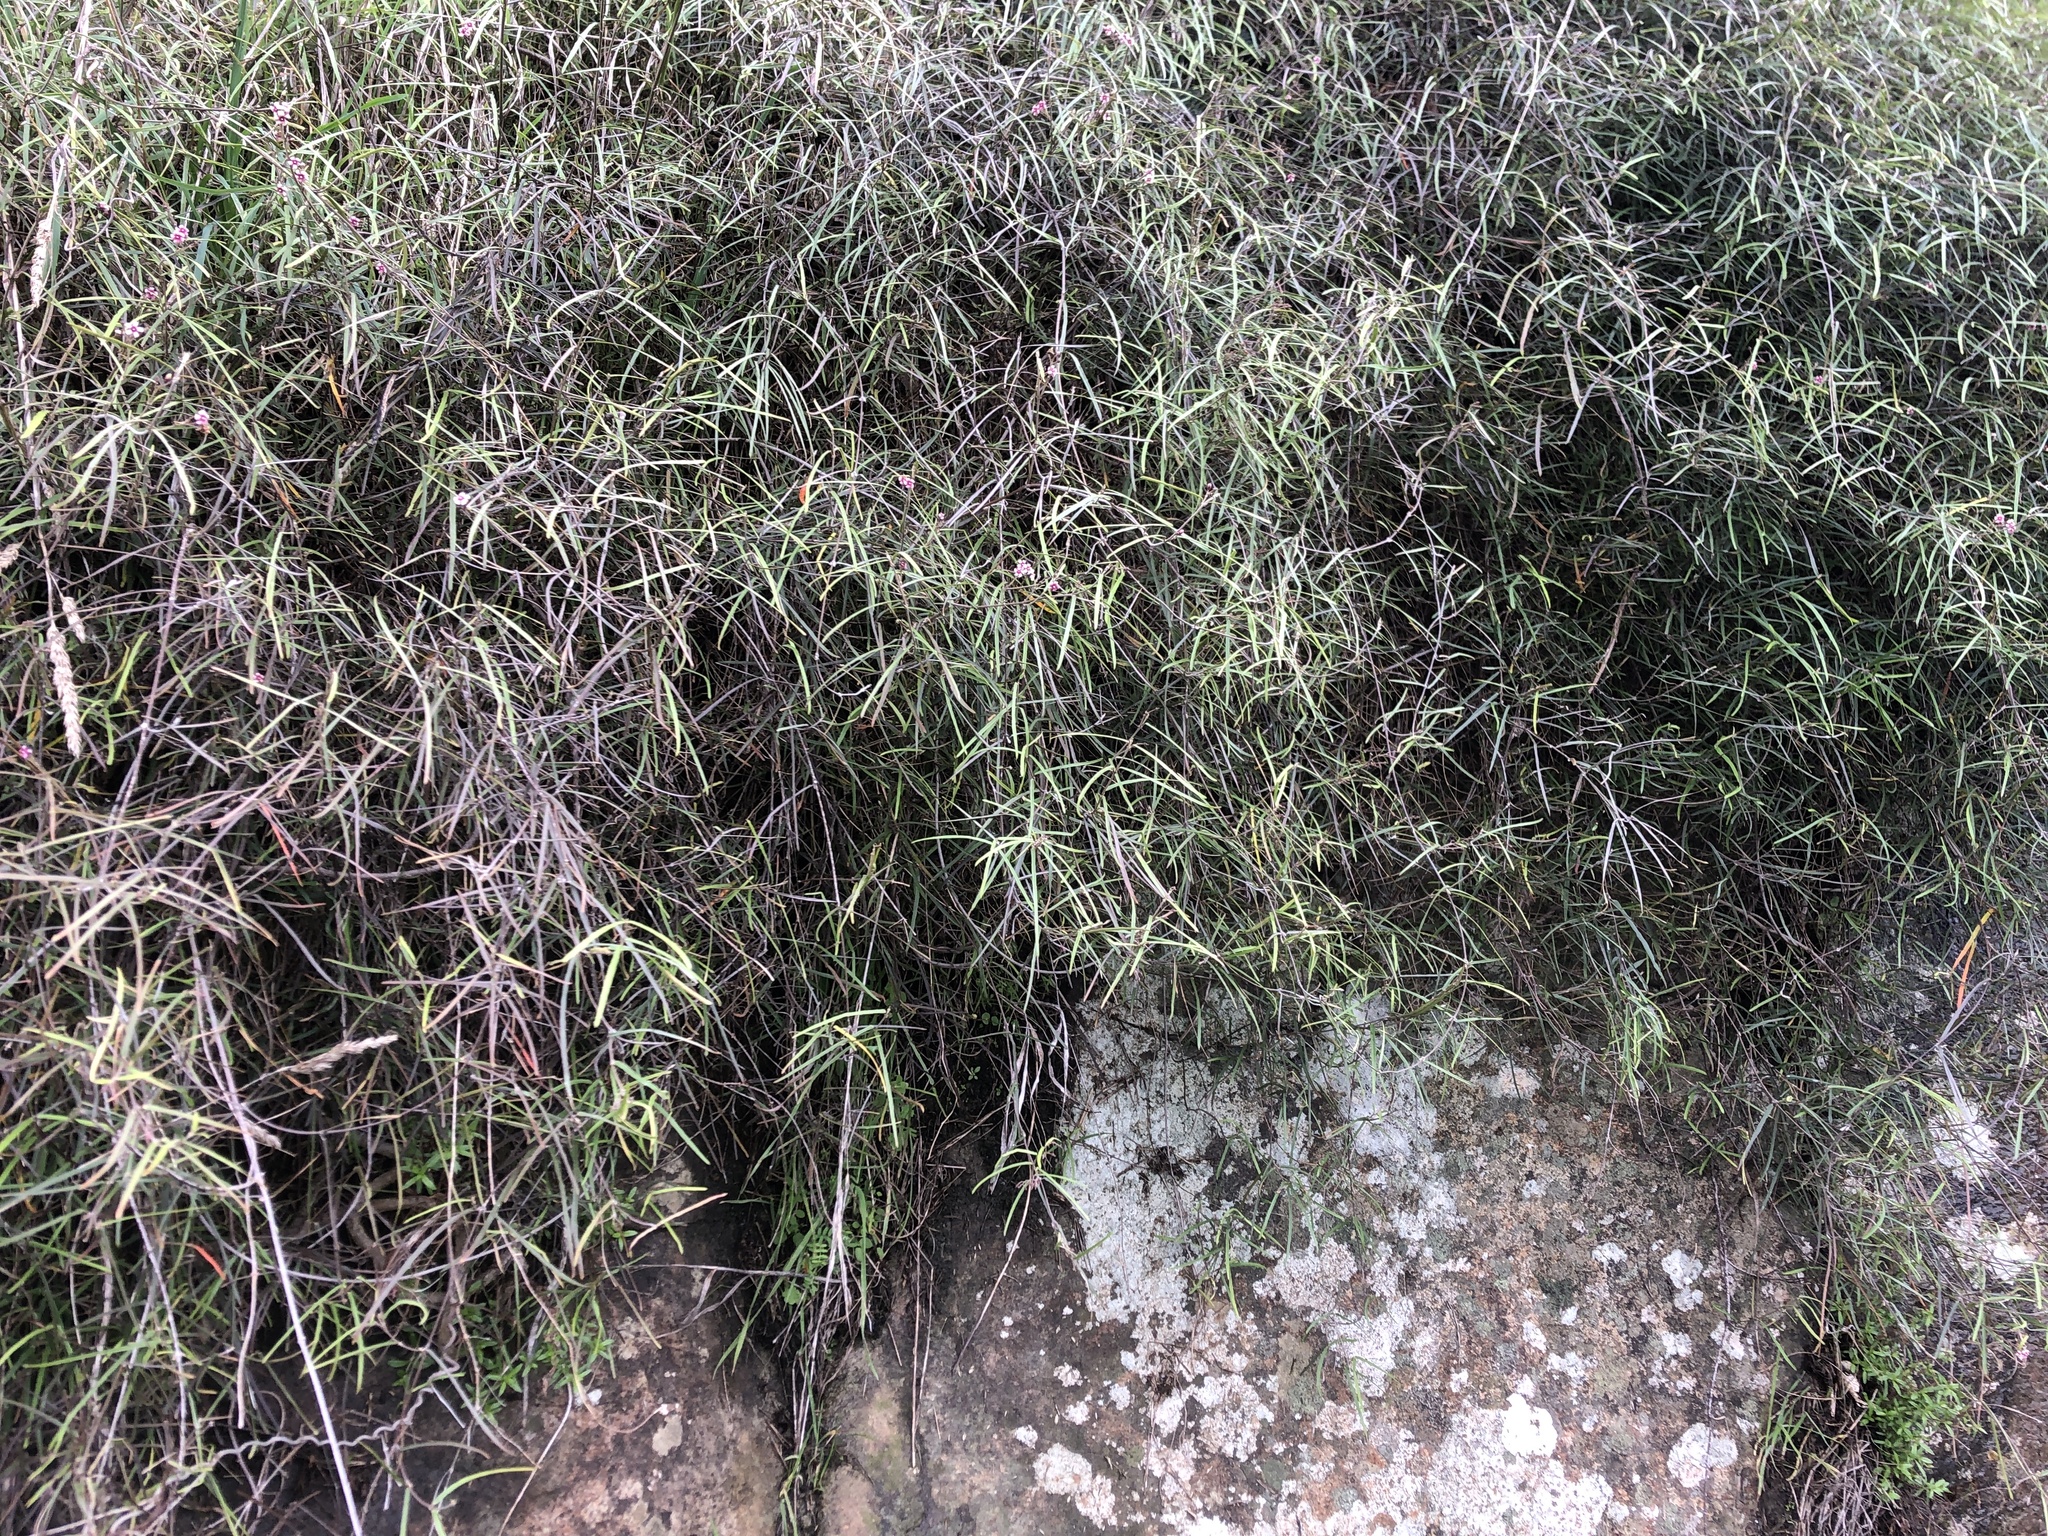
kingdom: Plantae
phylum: Tracheophyta
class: Magnoliopsida
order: Gentianales
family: Apocynaceae
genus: Parsonsia
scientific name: Parsonsia capsularis
